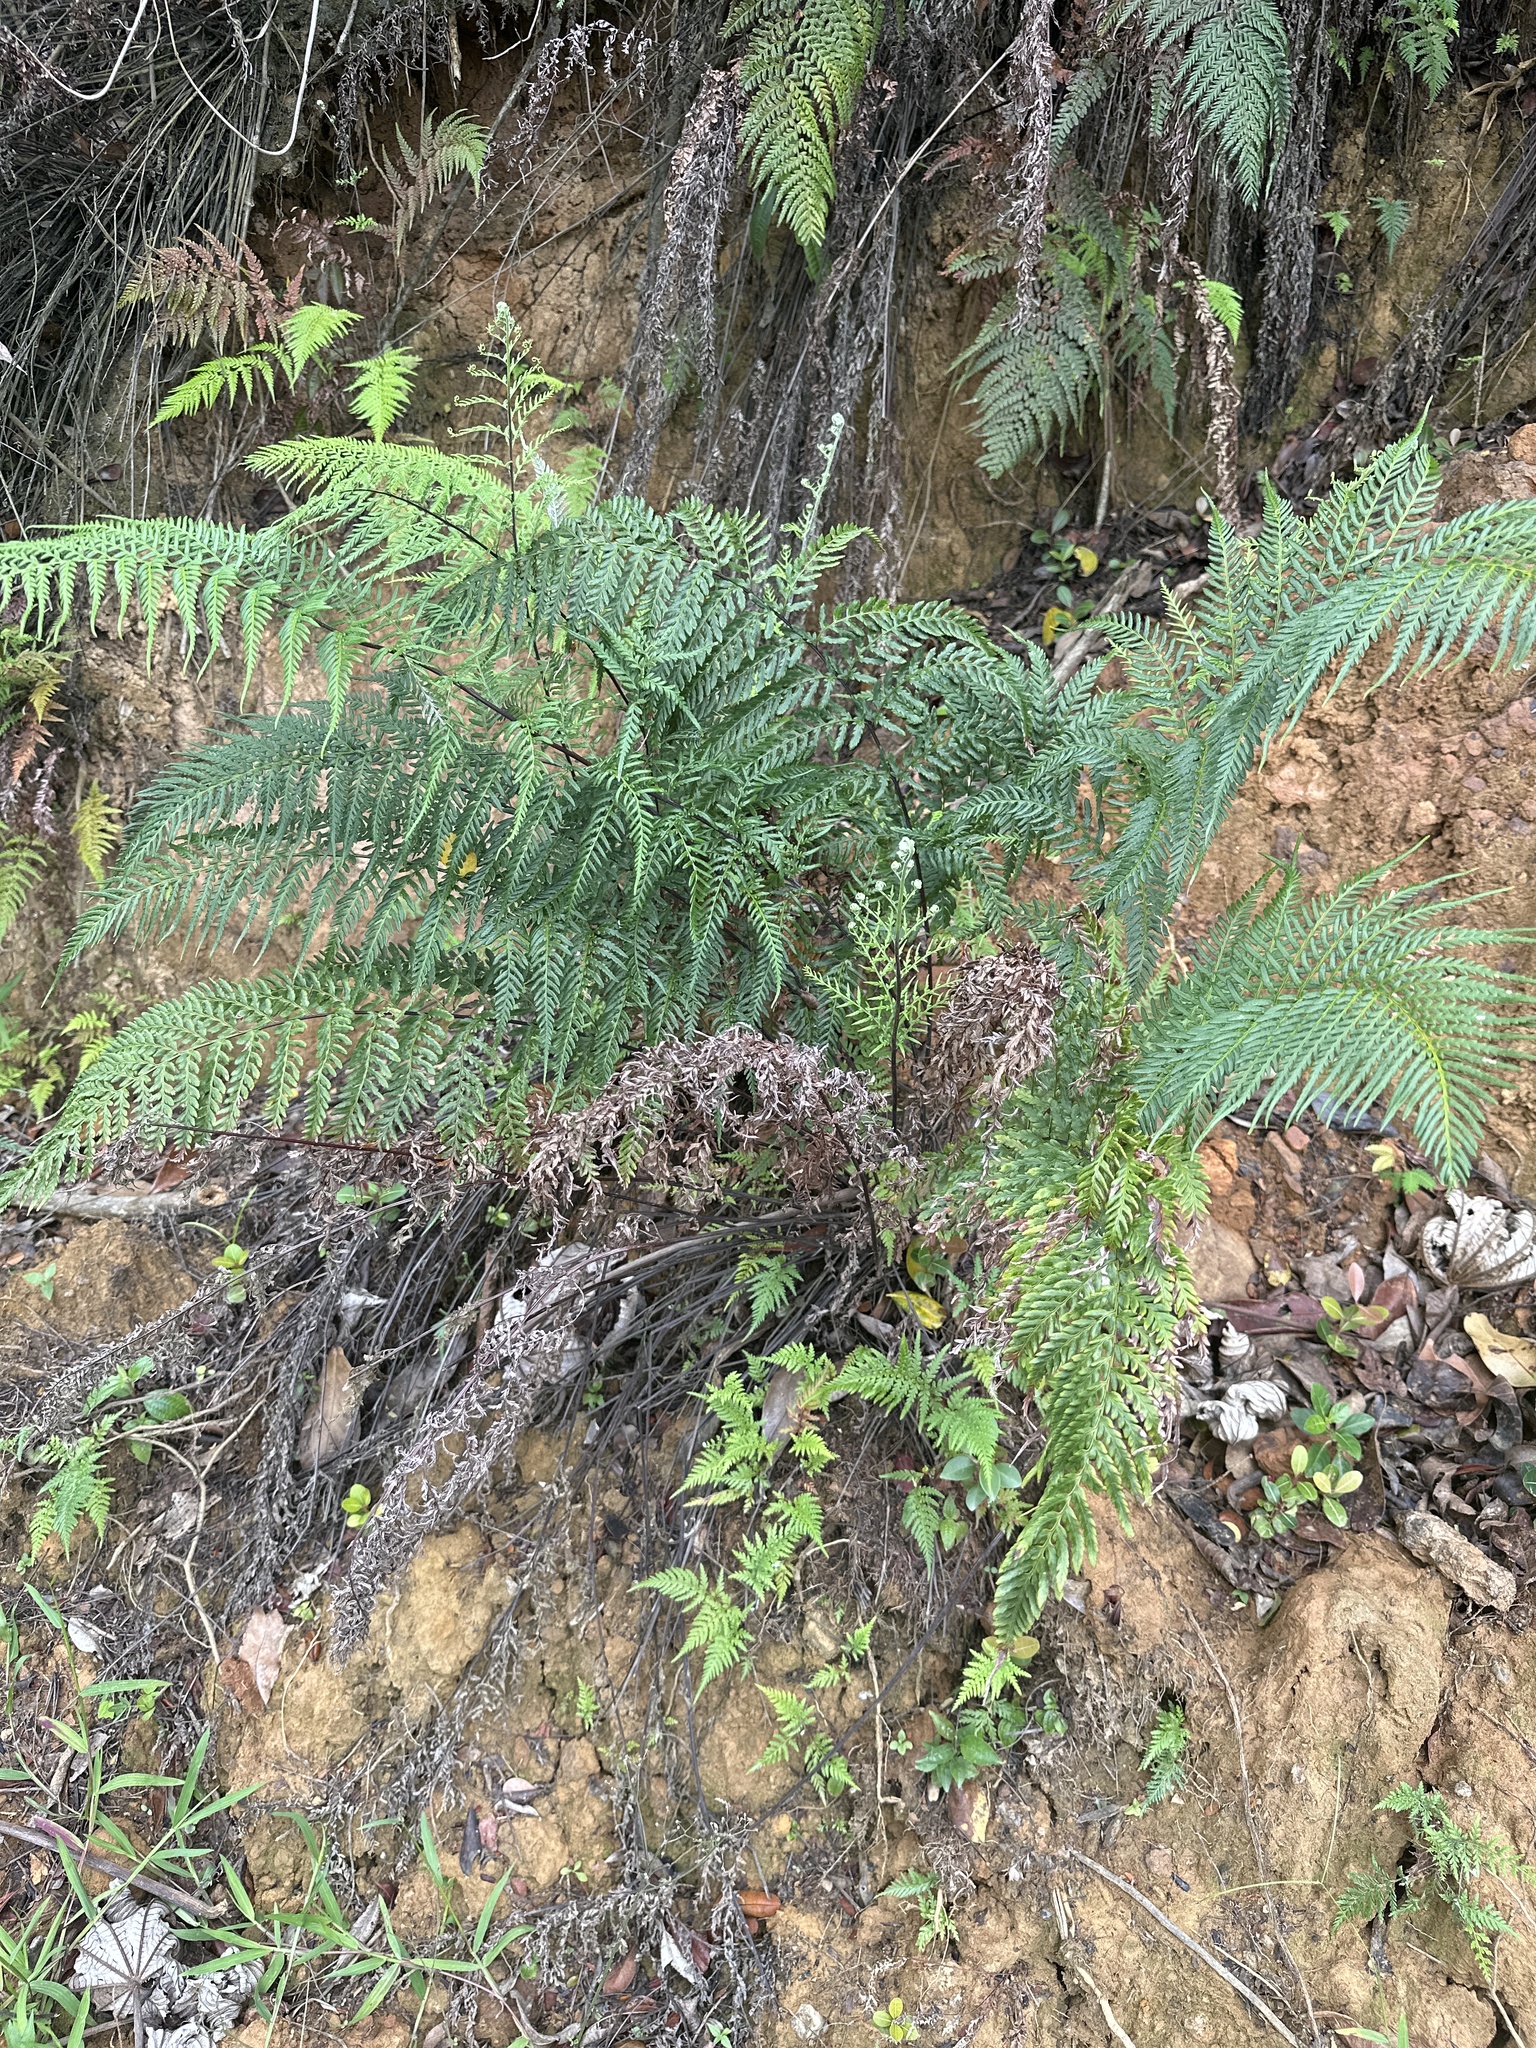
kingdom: Plantae
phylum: Tracheophyta
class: Polypodiopsida
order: Polypodiales
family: Pteridaceae
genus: Pityrogramma
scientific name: Pityrogramma calomelanos
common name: Dixie silverback fern
